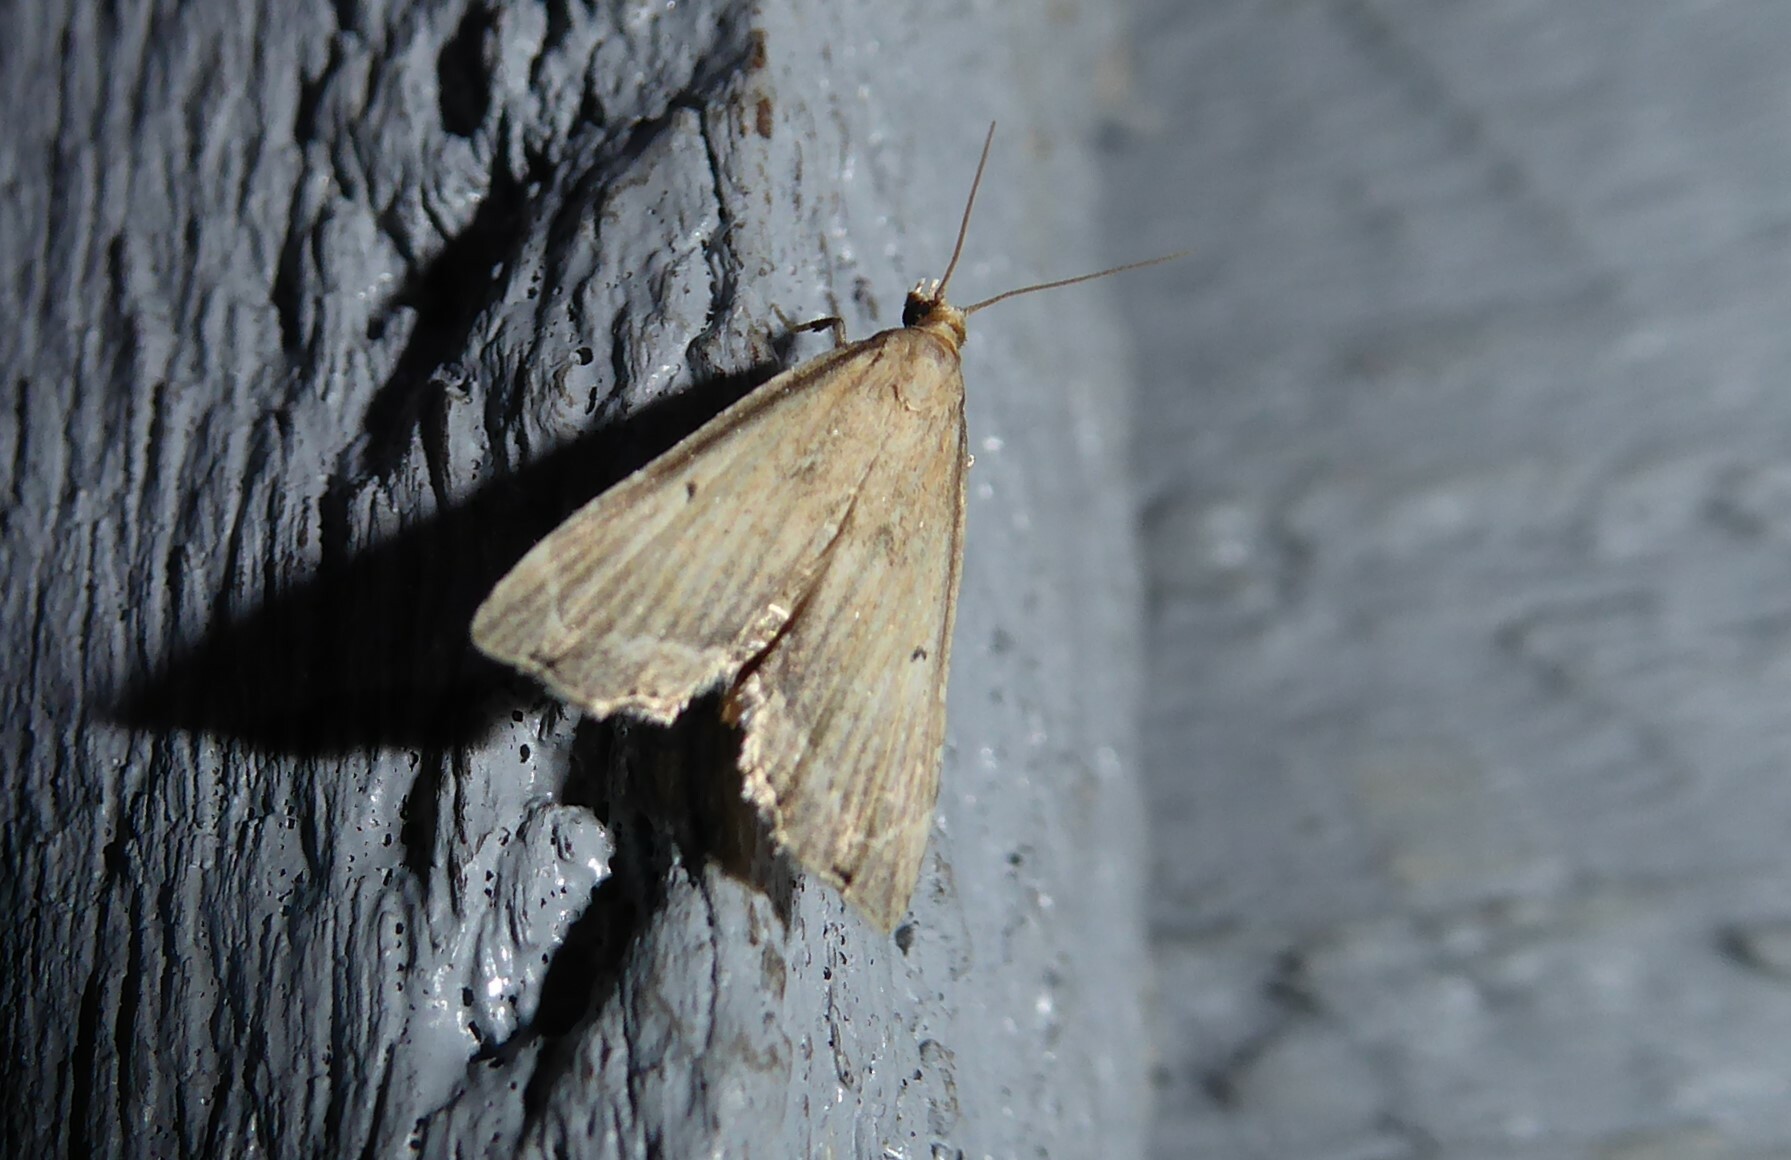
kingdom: Animalia
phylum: Arthropoda
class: Insecta
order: Lepidoptera
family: Crambidae
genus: Diplopseustis
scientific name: Diplopseustis perieresalis
